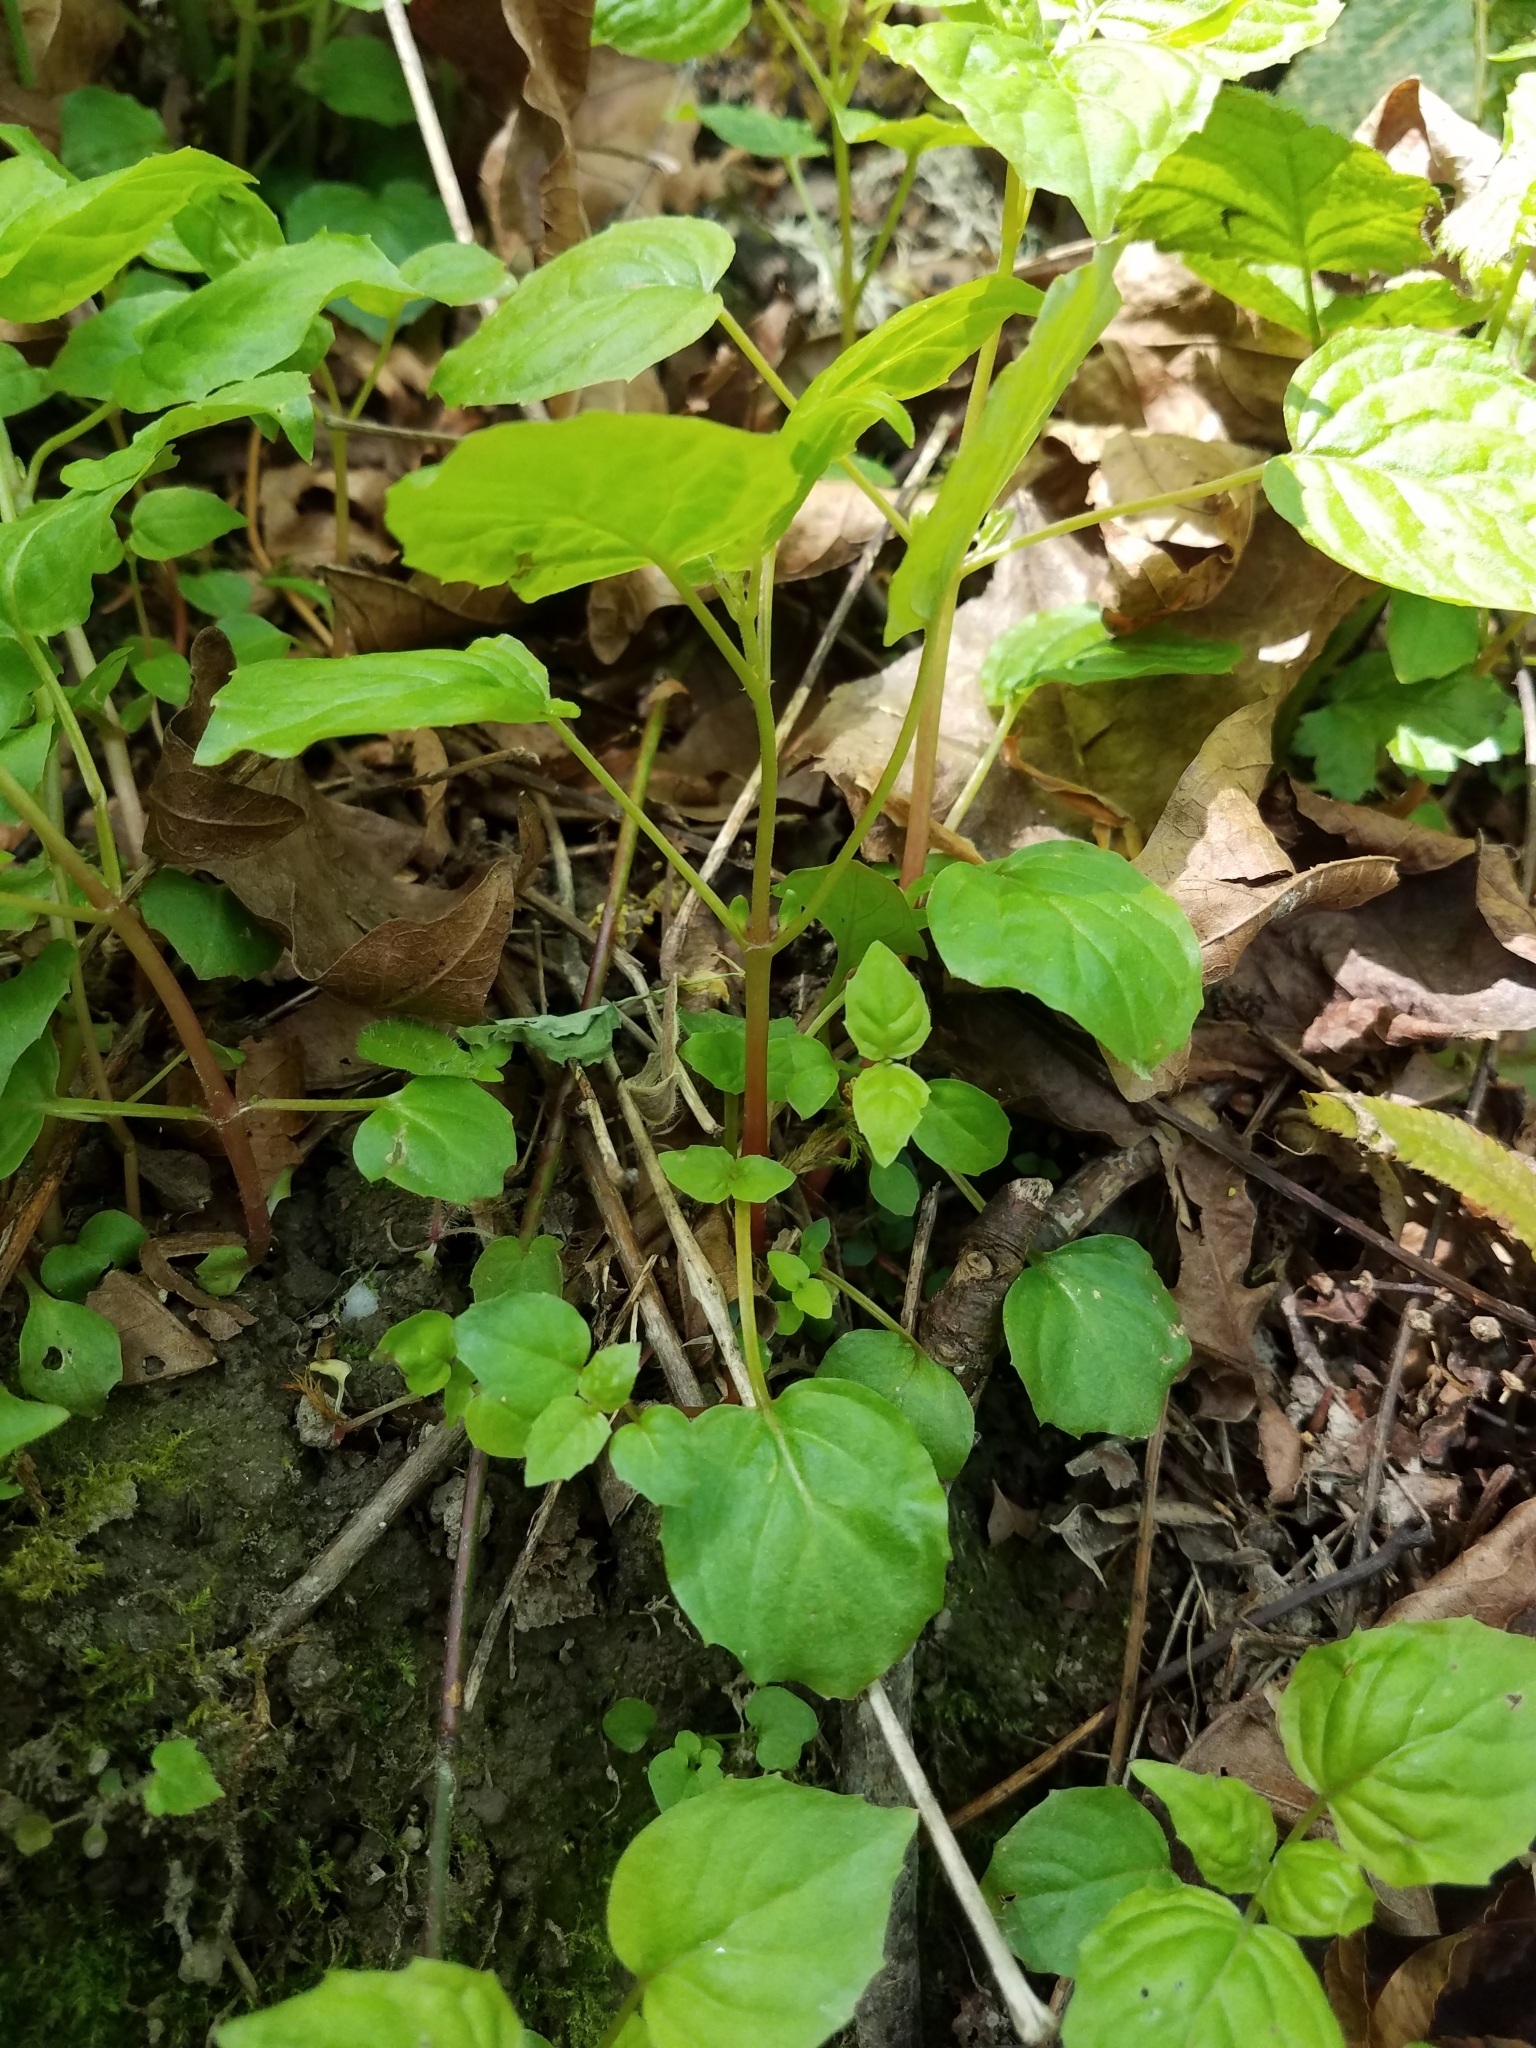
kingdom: Plantae
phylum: Tracheophyta
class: Magnoliopsida
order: Myrtales
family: Onagraceae
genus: Circaea
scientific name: Circaea alpina
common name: Alpine enchanter's-nightshade
